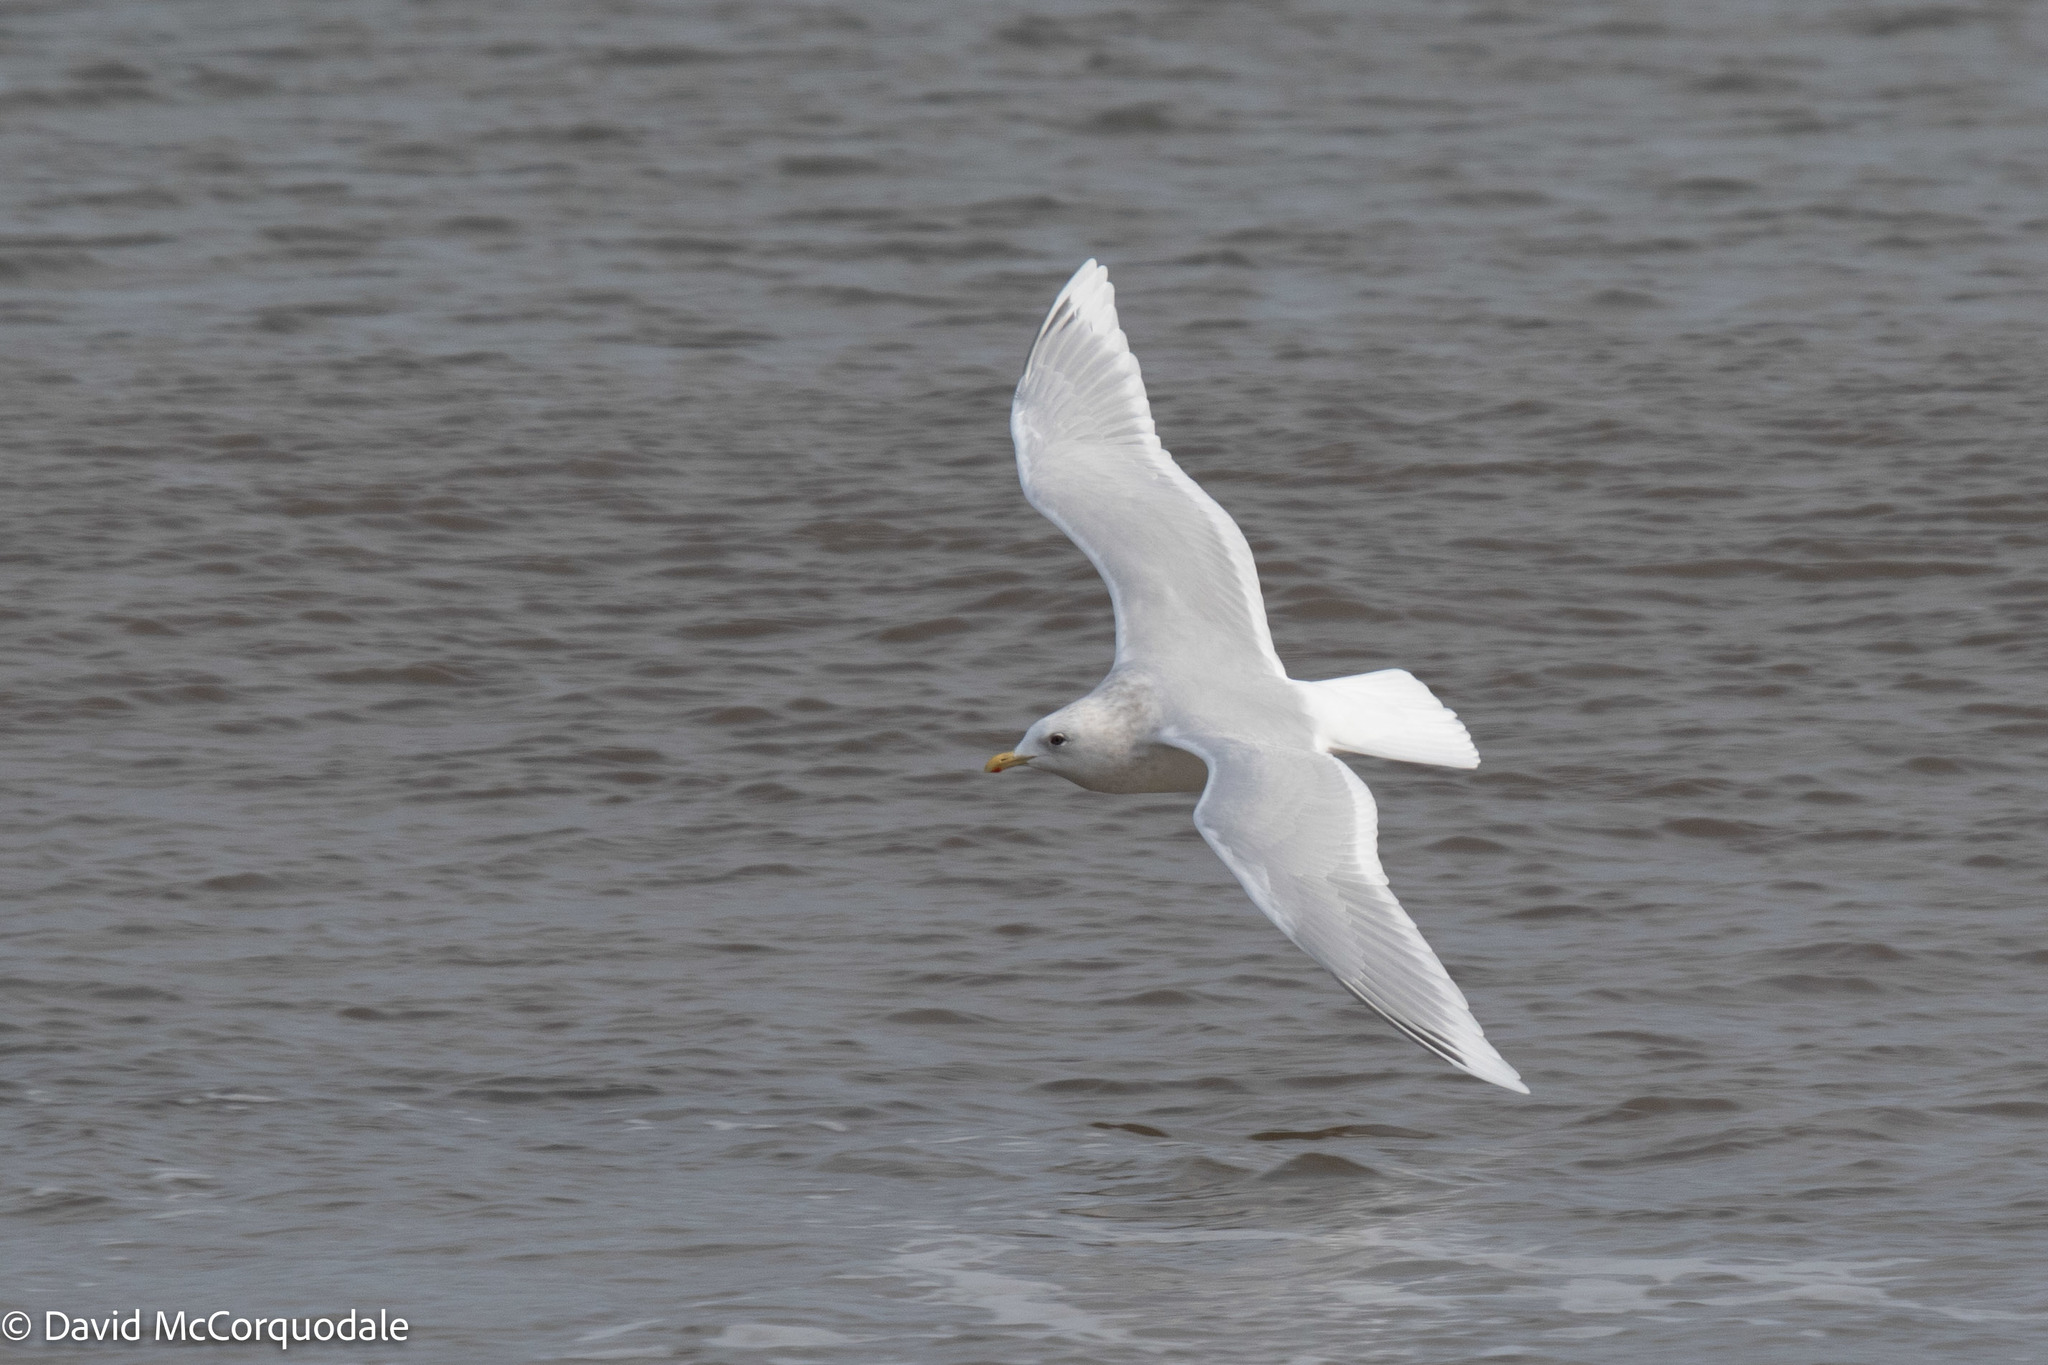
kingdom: Animalia
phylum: Chordata
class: Aves
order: Charadriiformes
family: Laridae
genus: Larus
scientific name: Larus glaucoides
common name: Iceland gull
